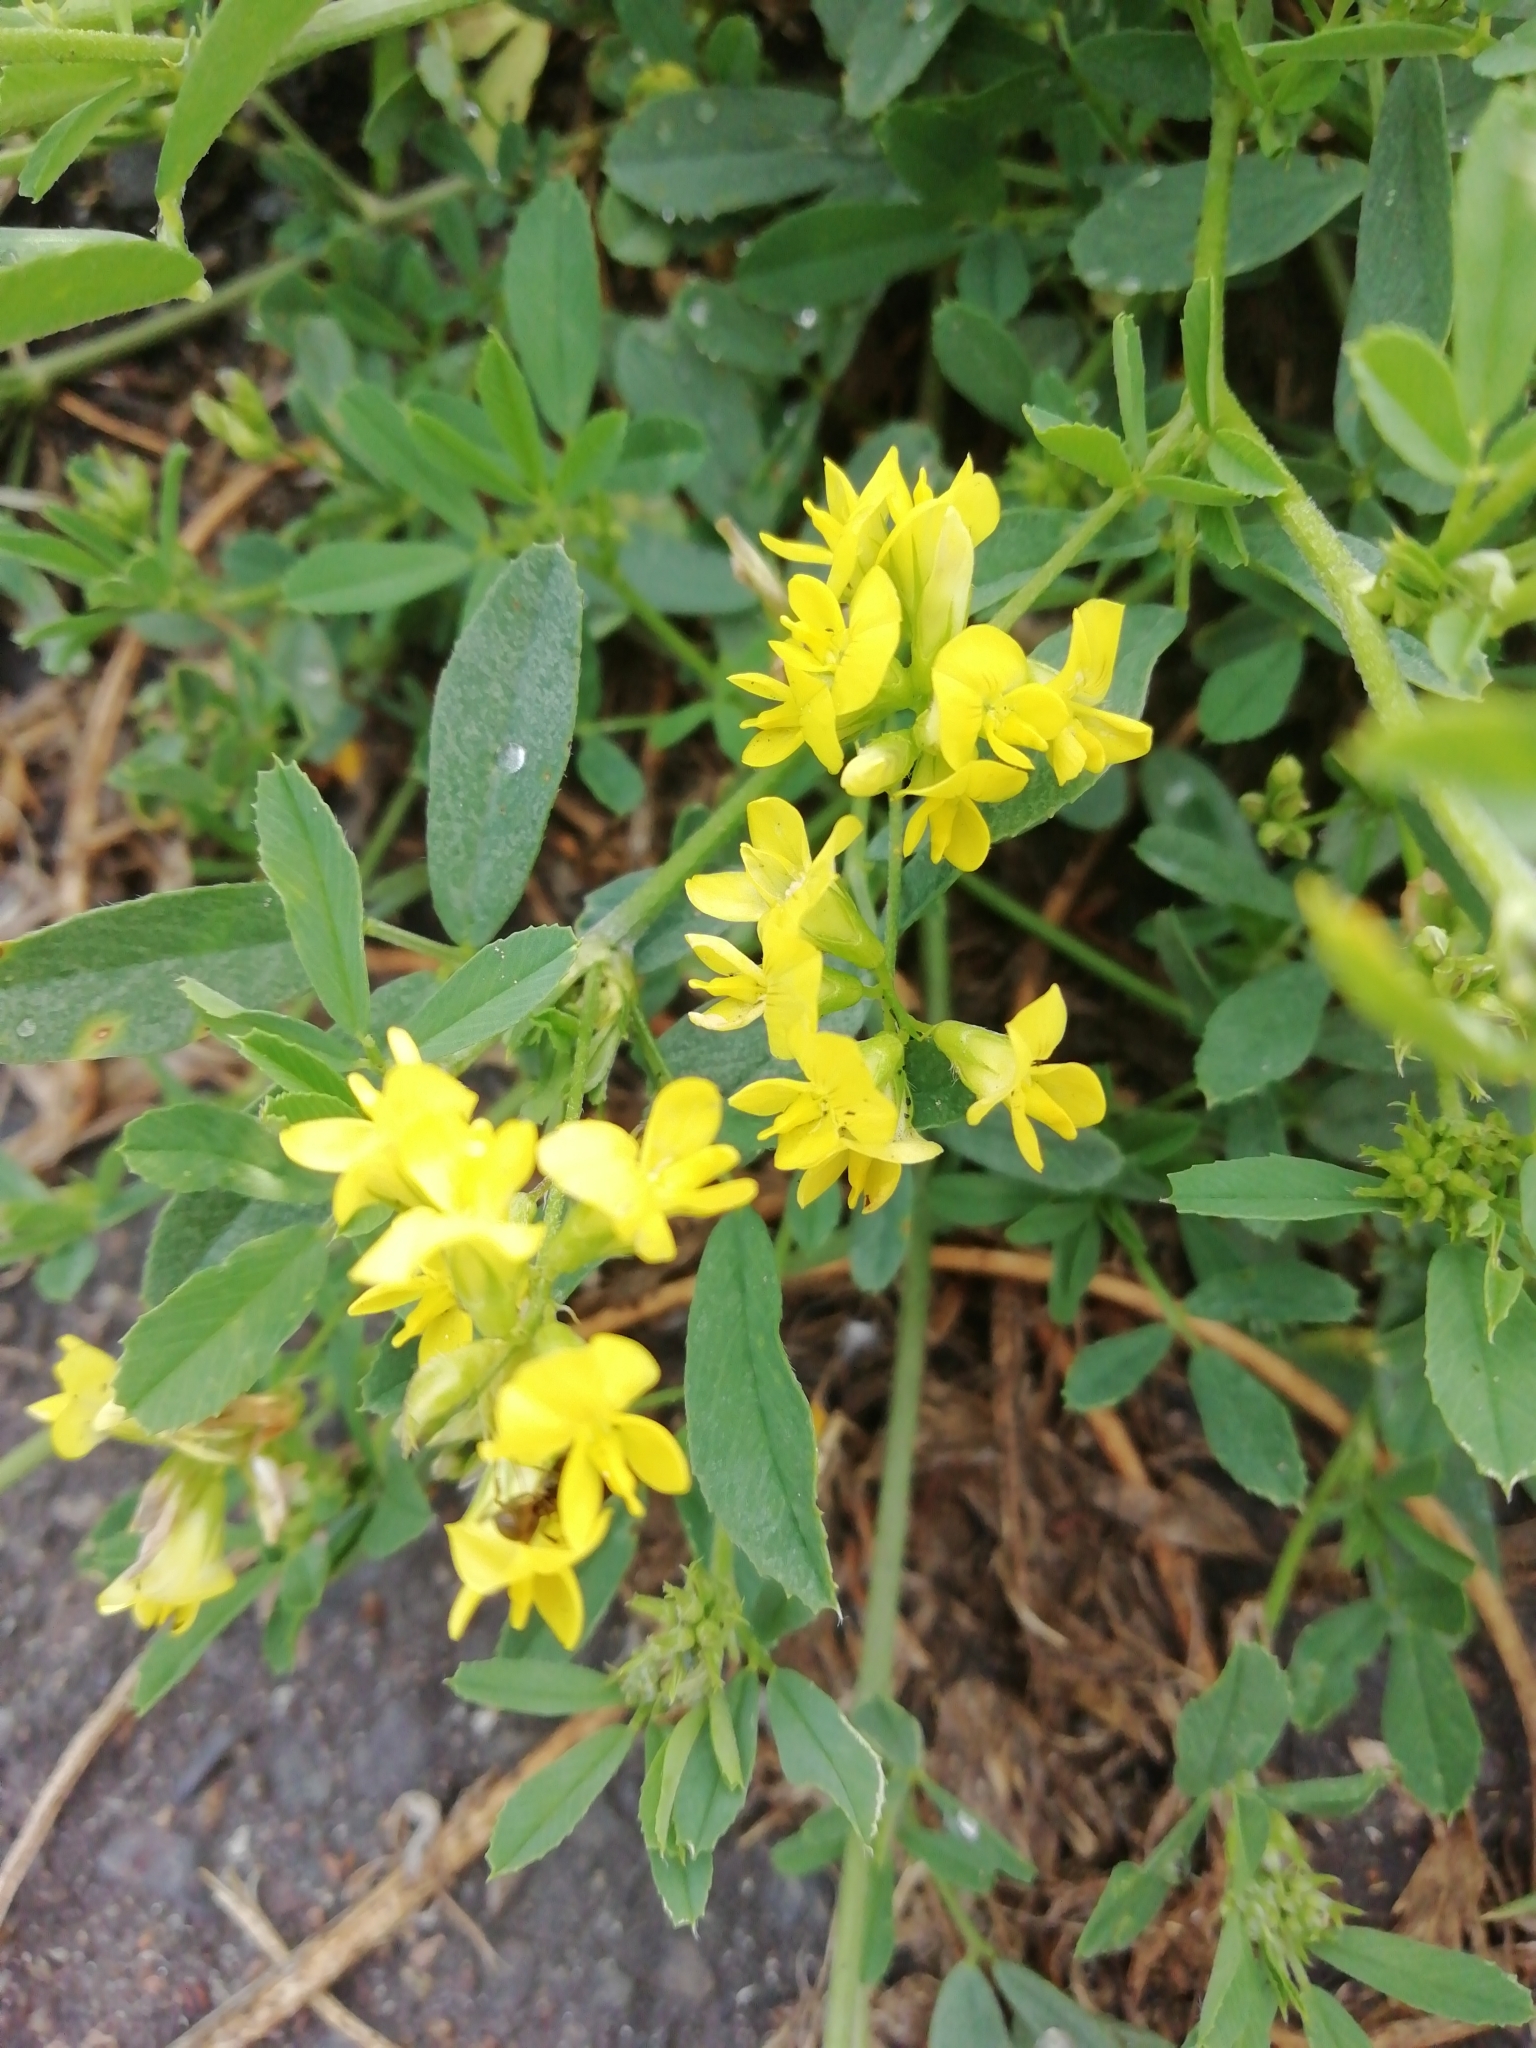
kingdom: Plantae
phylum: Tracheophyta
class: Magnoliopsida
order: Fabales
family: Fabaceae
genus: Medicago
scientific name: Medicago falcata
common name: Sickle medick
